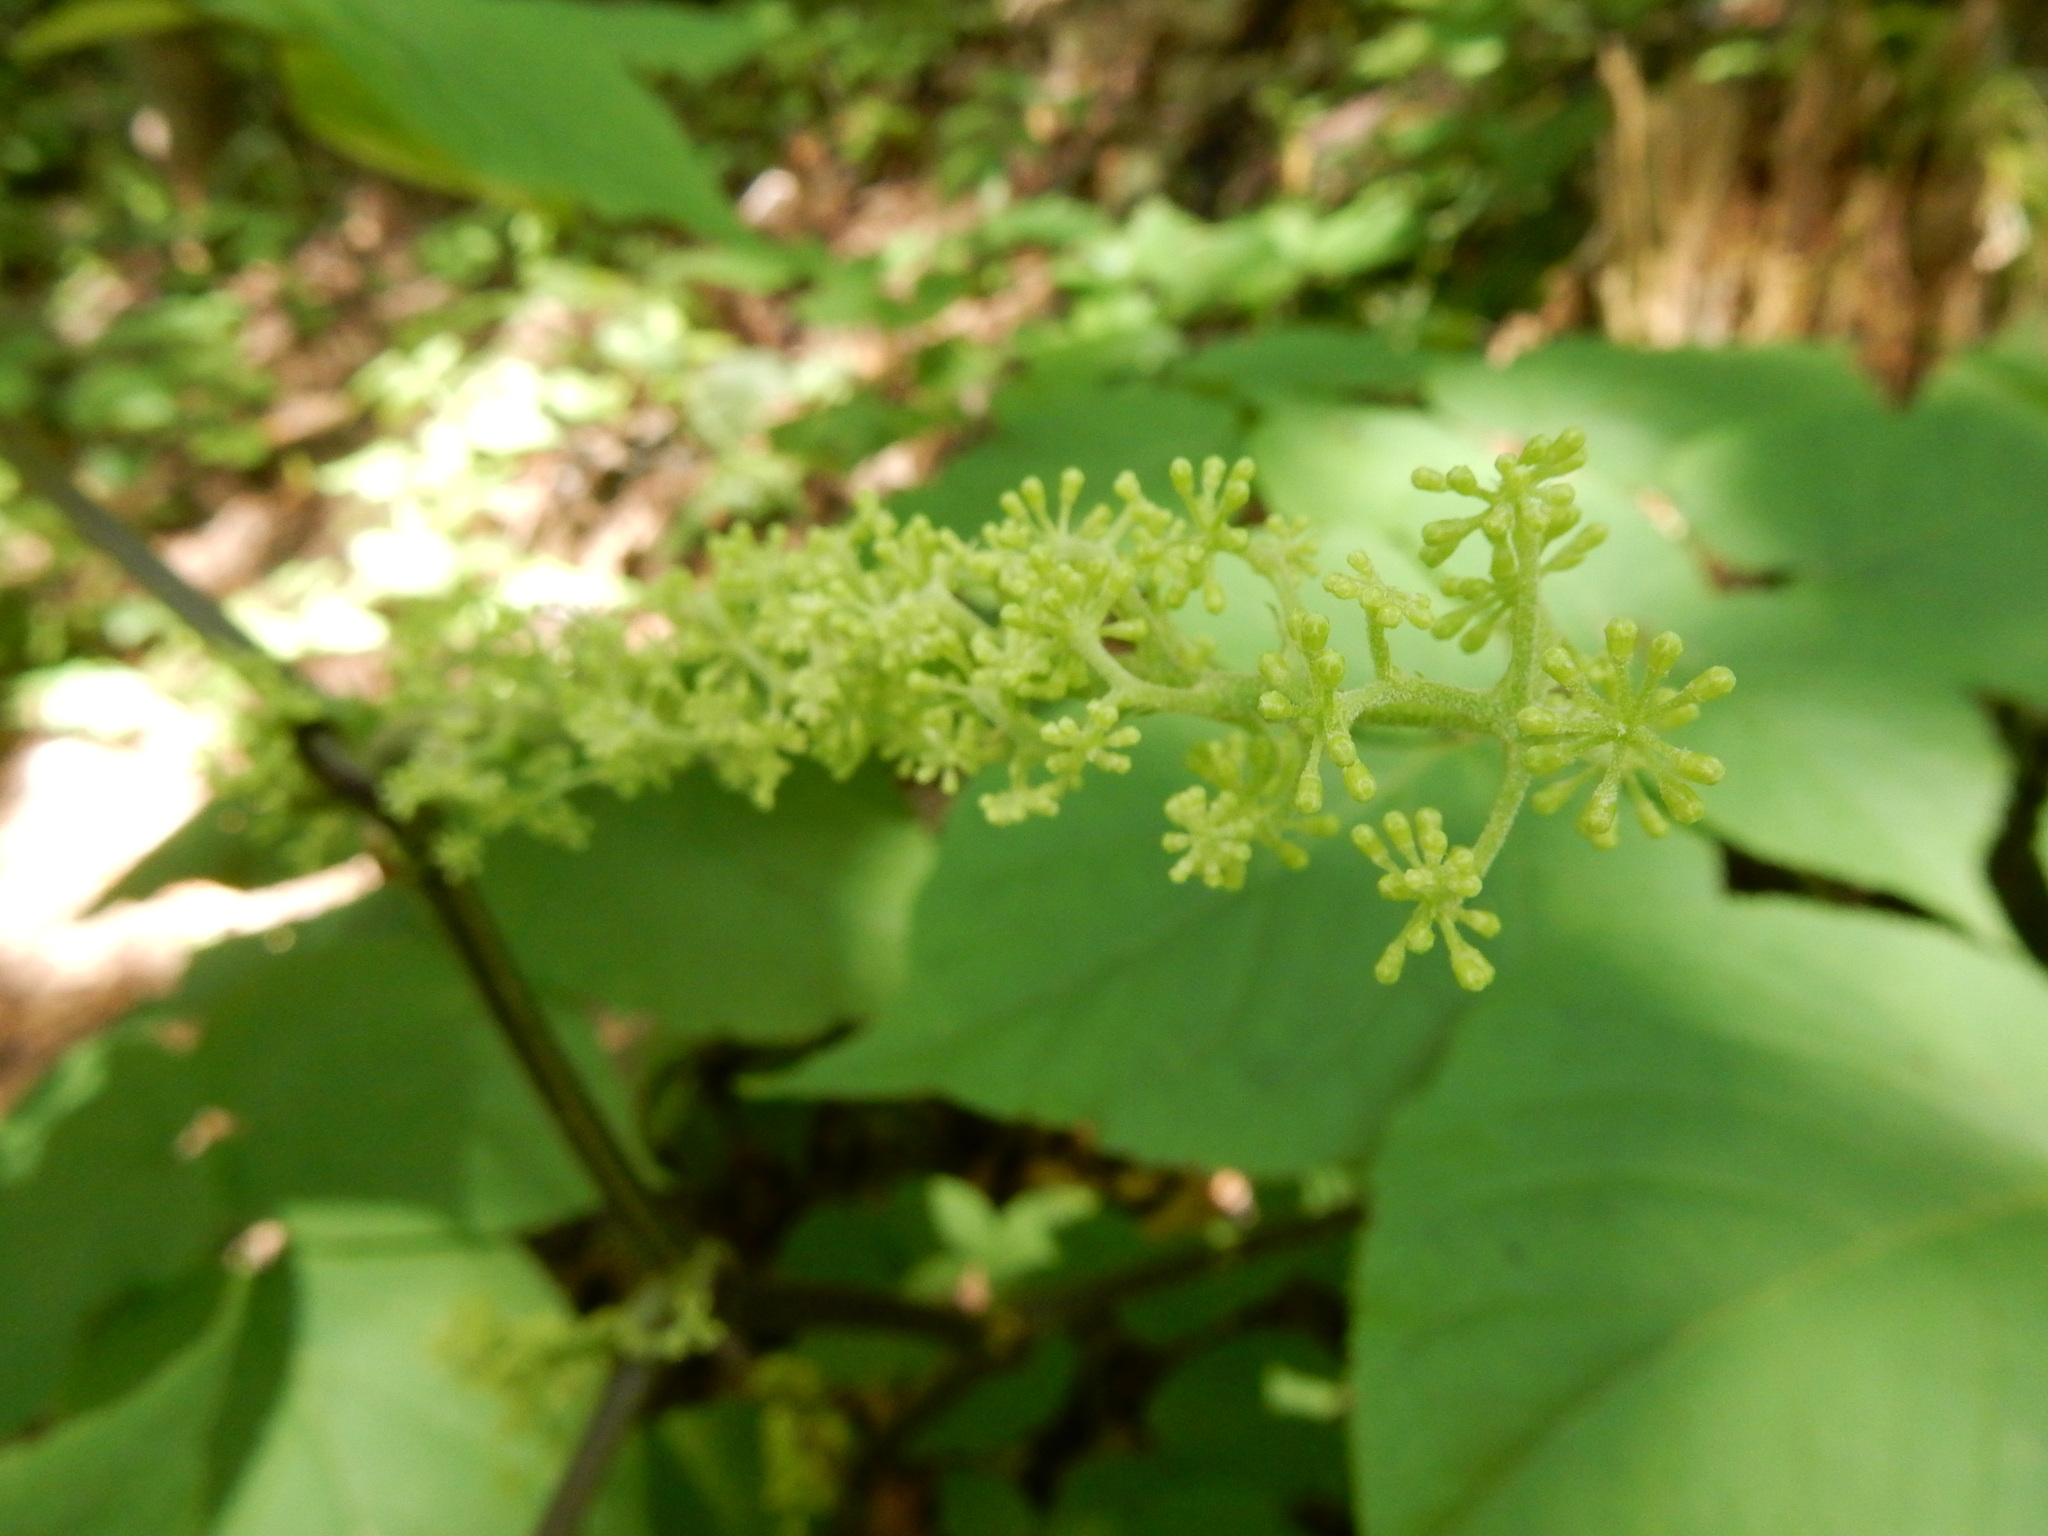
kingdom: Plantae
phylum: Tracheophyta
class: Magnoliopsida
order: Apiales
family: Araliaceae
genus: Aralia
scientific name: Aralia racemosa
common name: American-spikenard
